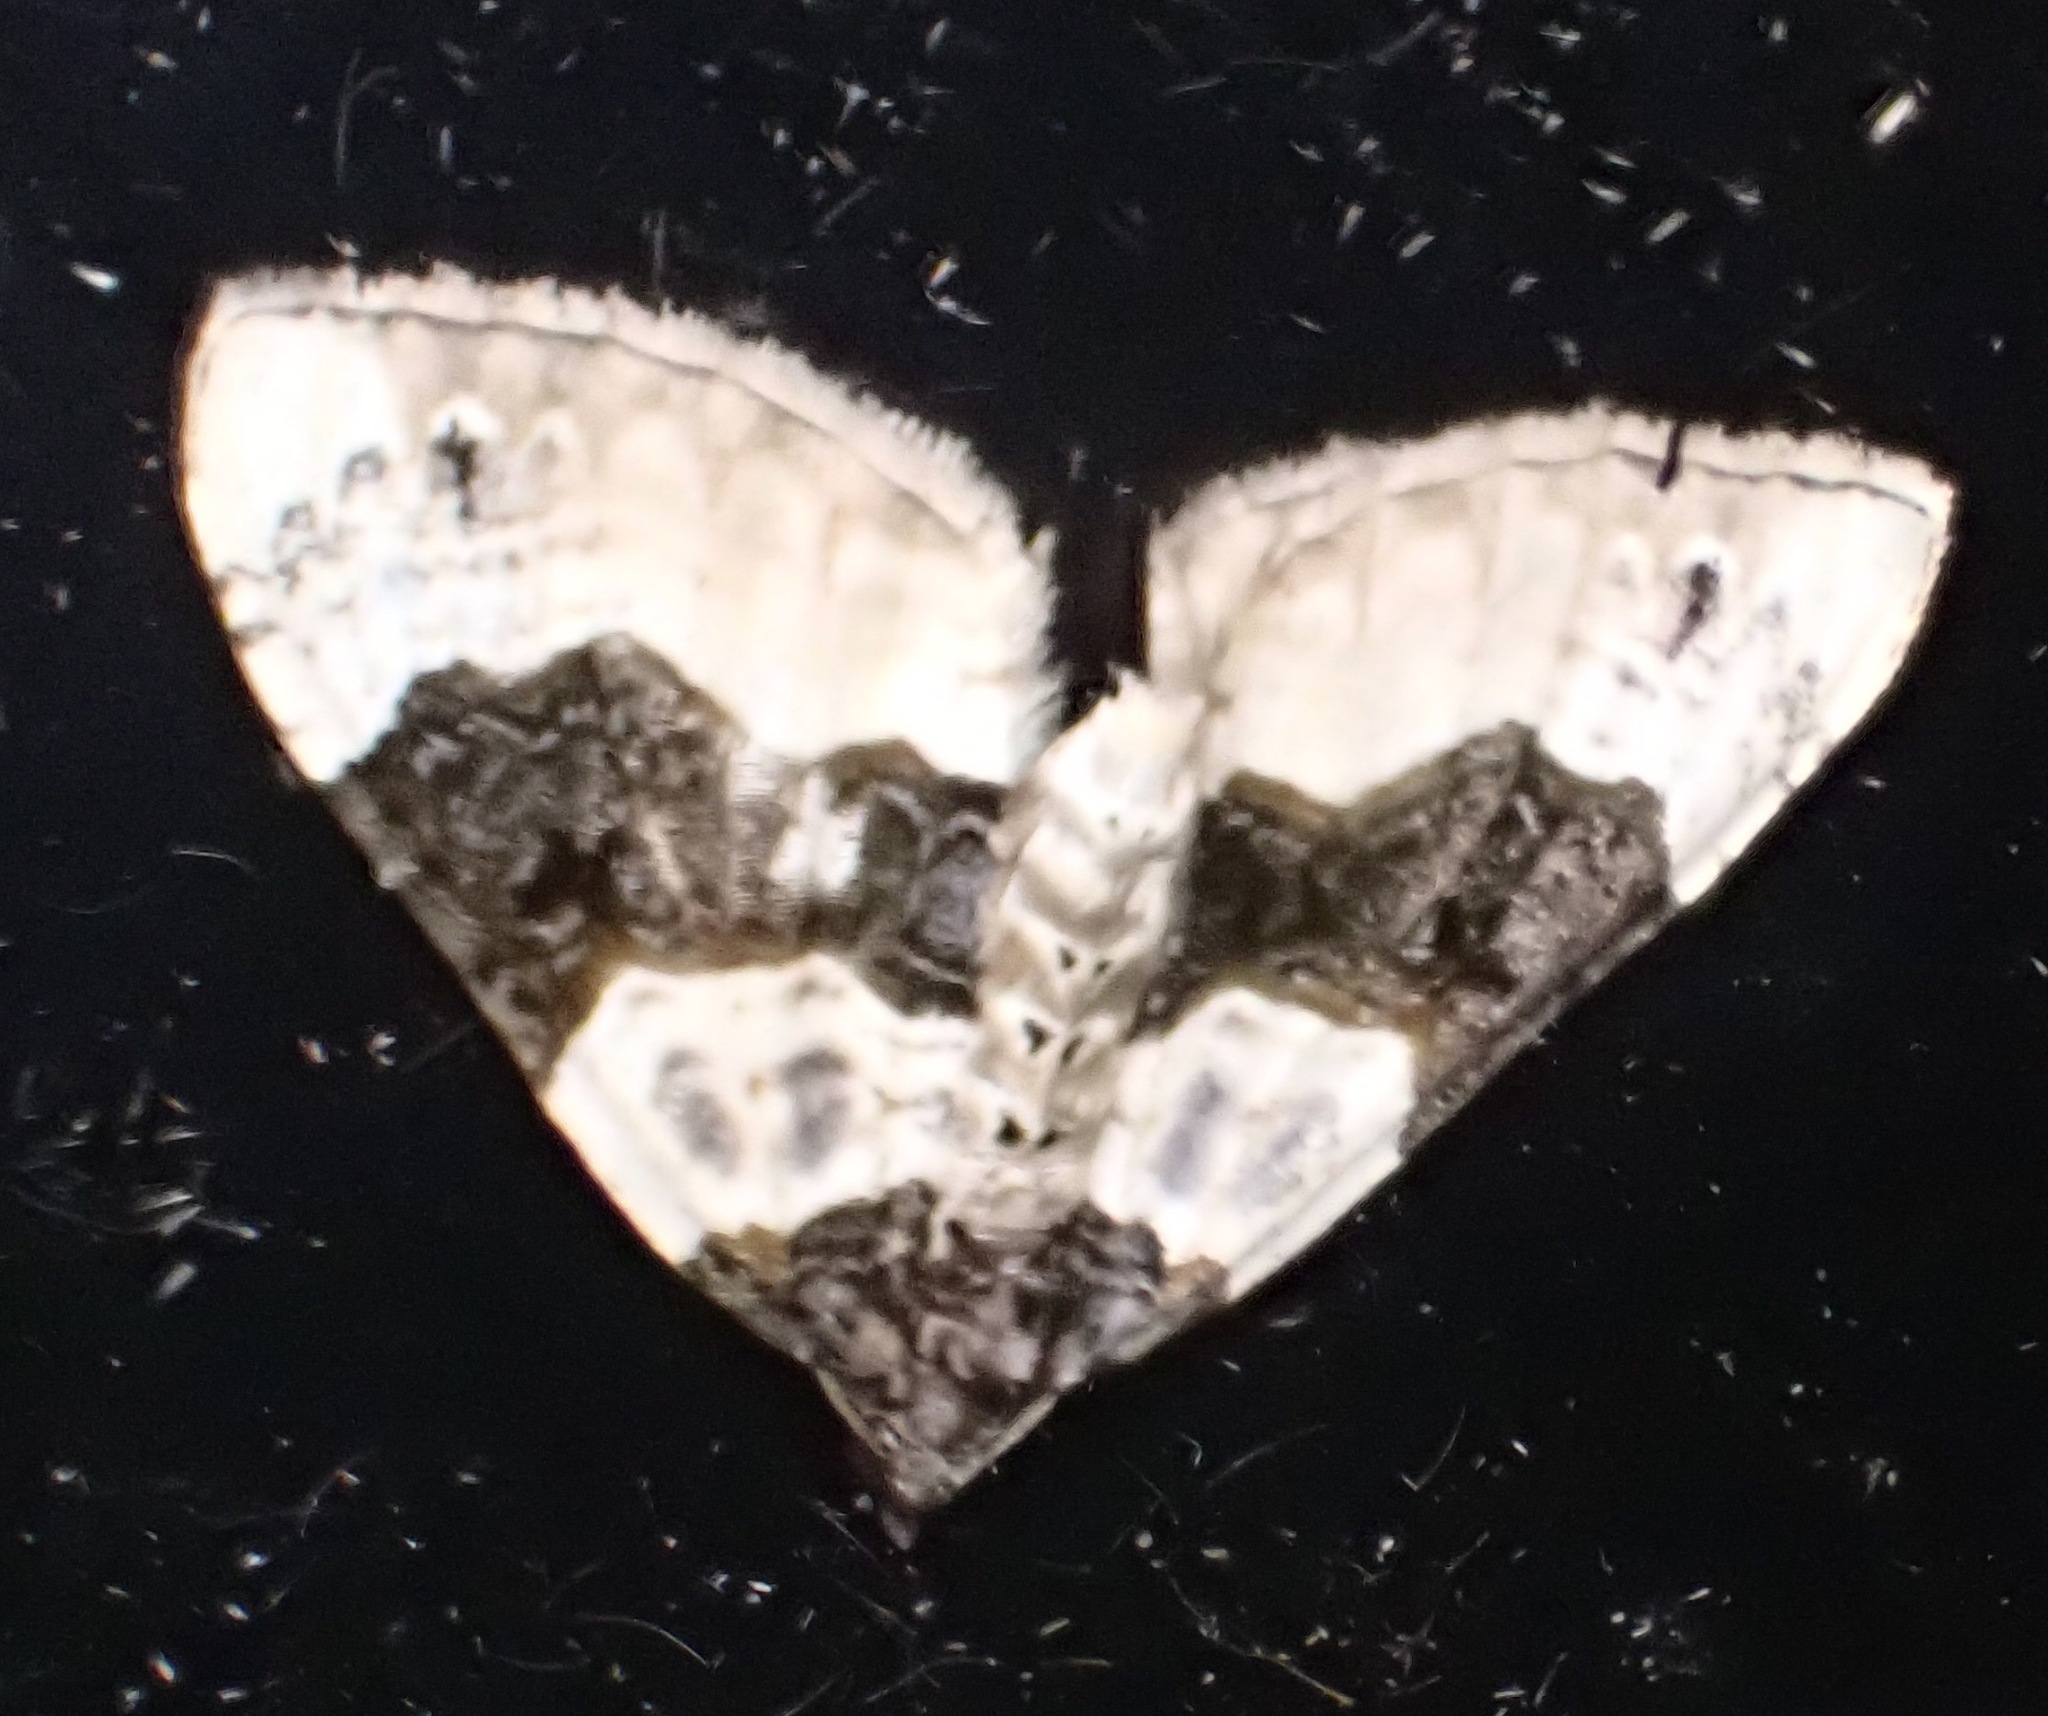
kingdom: Animalia
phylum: Arthropoda
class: Insecta
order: Lepidoptera
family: Geometridae
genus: Cosmorhoe
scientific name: Cosmorhoe ocellata
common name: Purple bar
